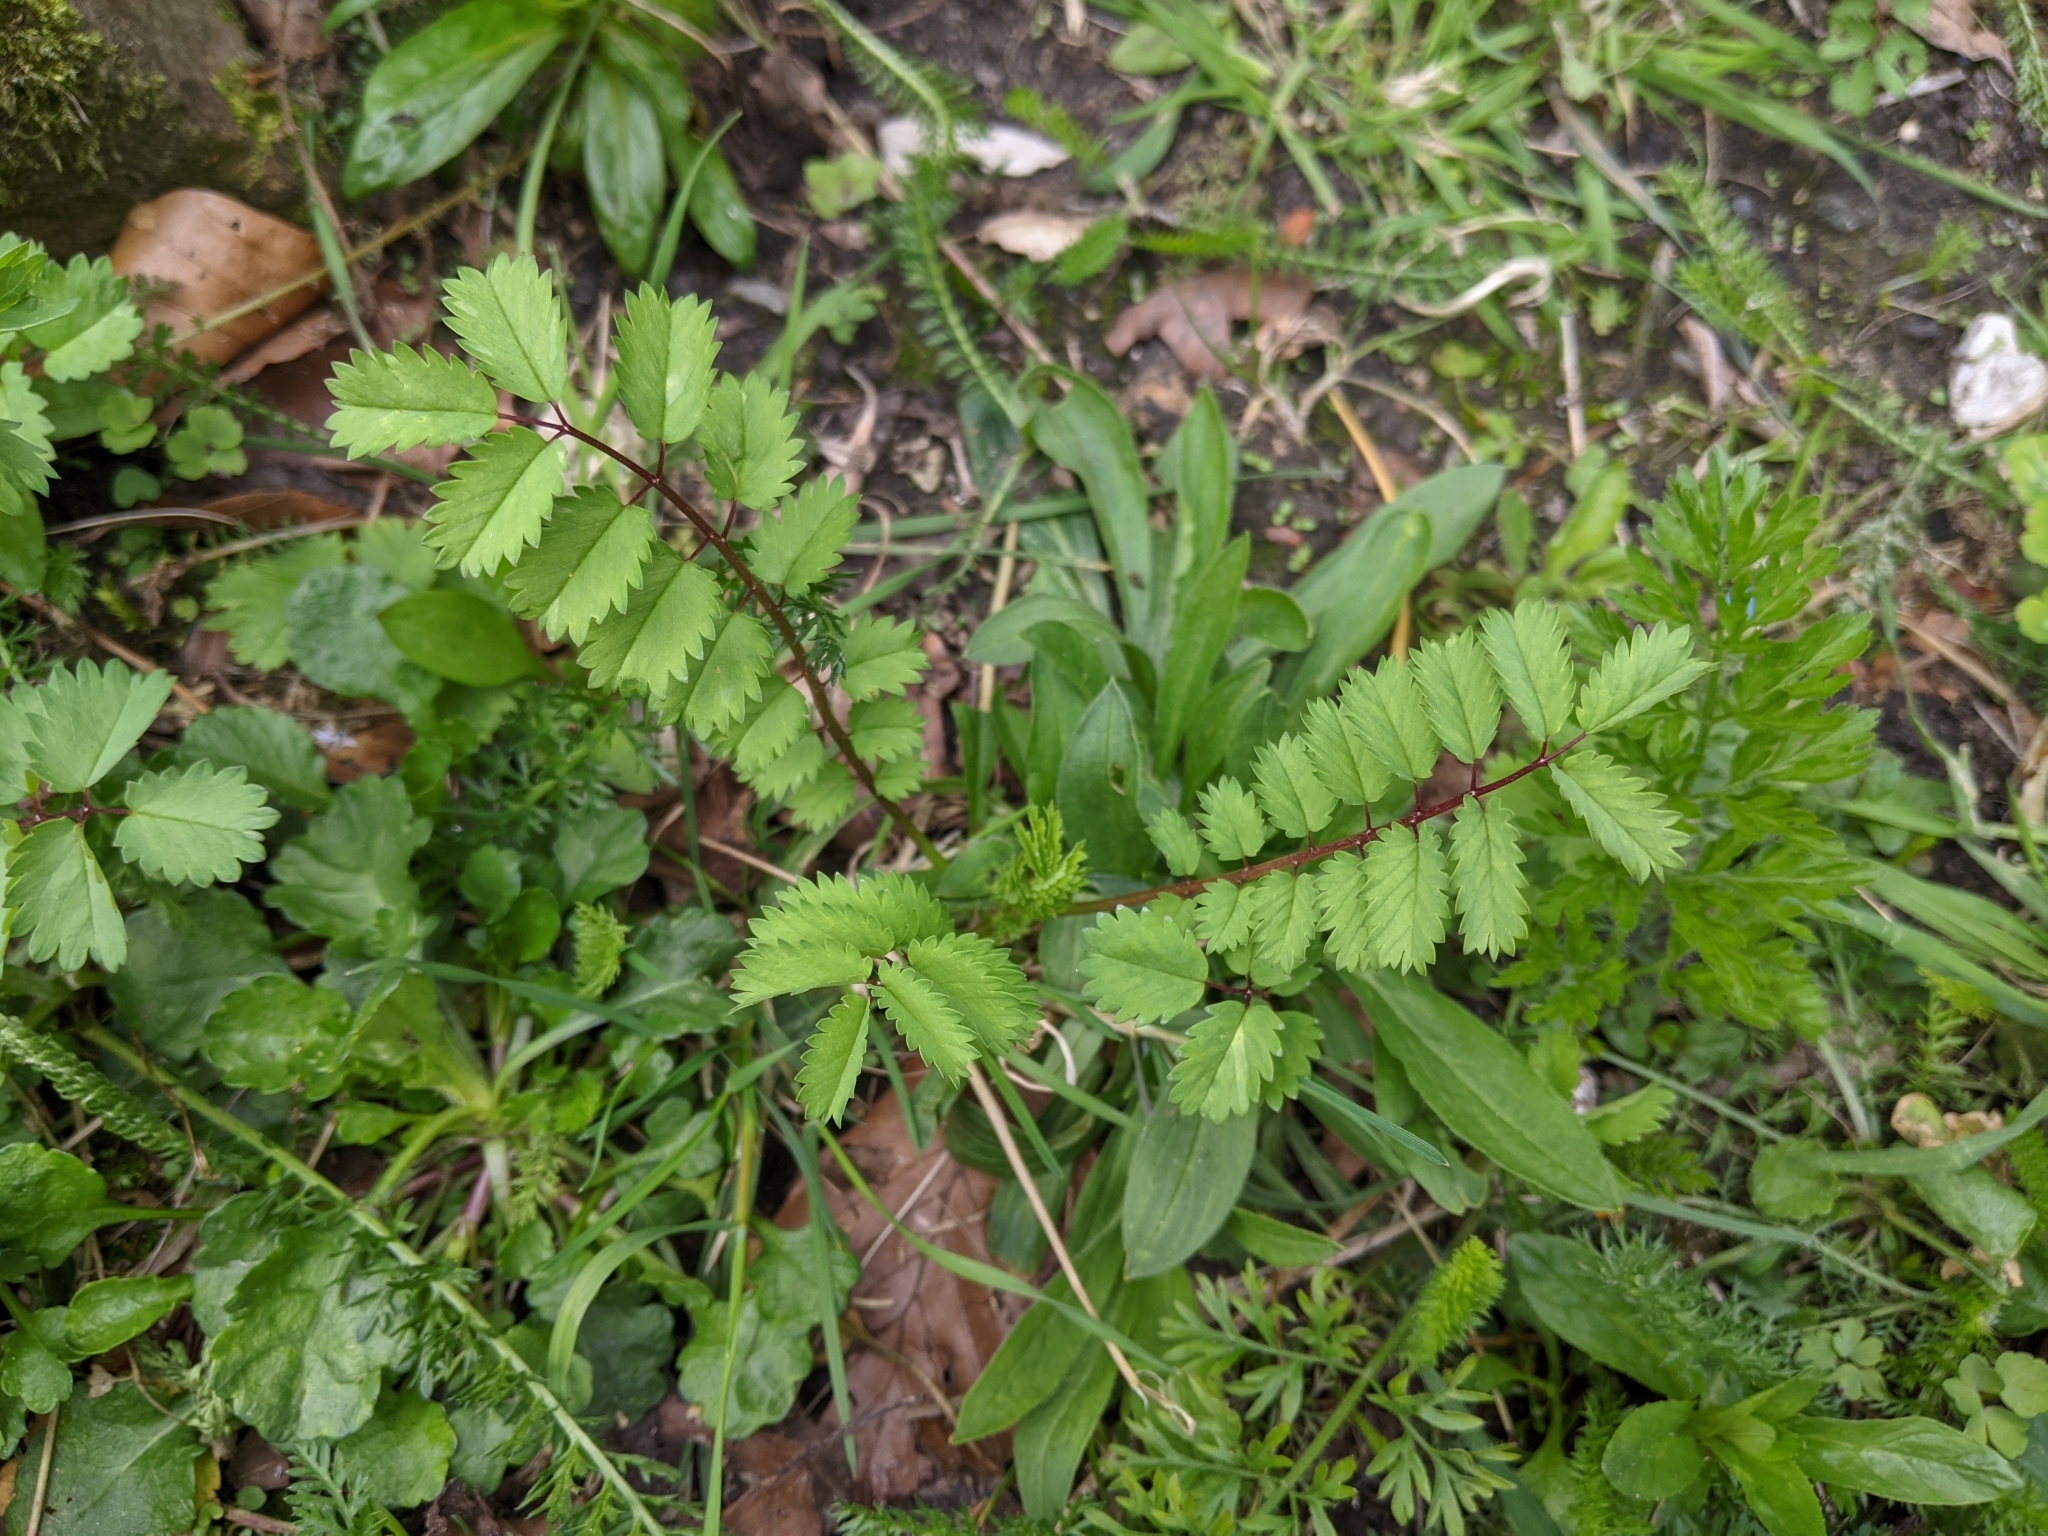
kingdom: Plantae
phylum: Tracheophyta
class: Magnoliopsida
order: Rosales
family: Rosaceae
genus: Poterium
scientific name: Poterium sanguisorba
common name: Salad burnet
